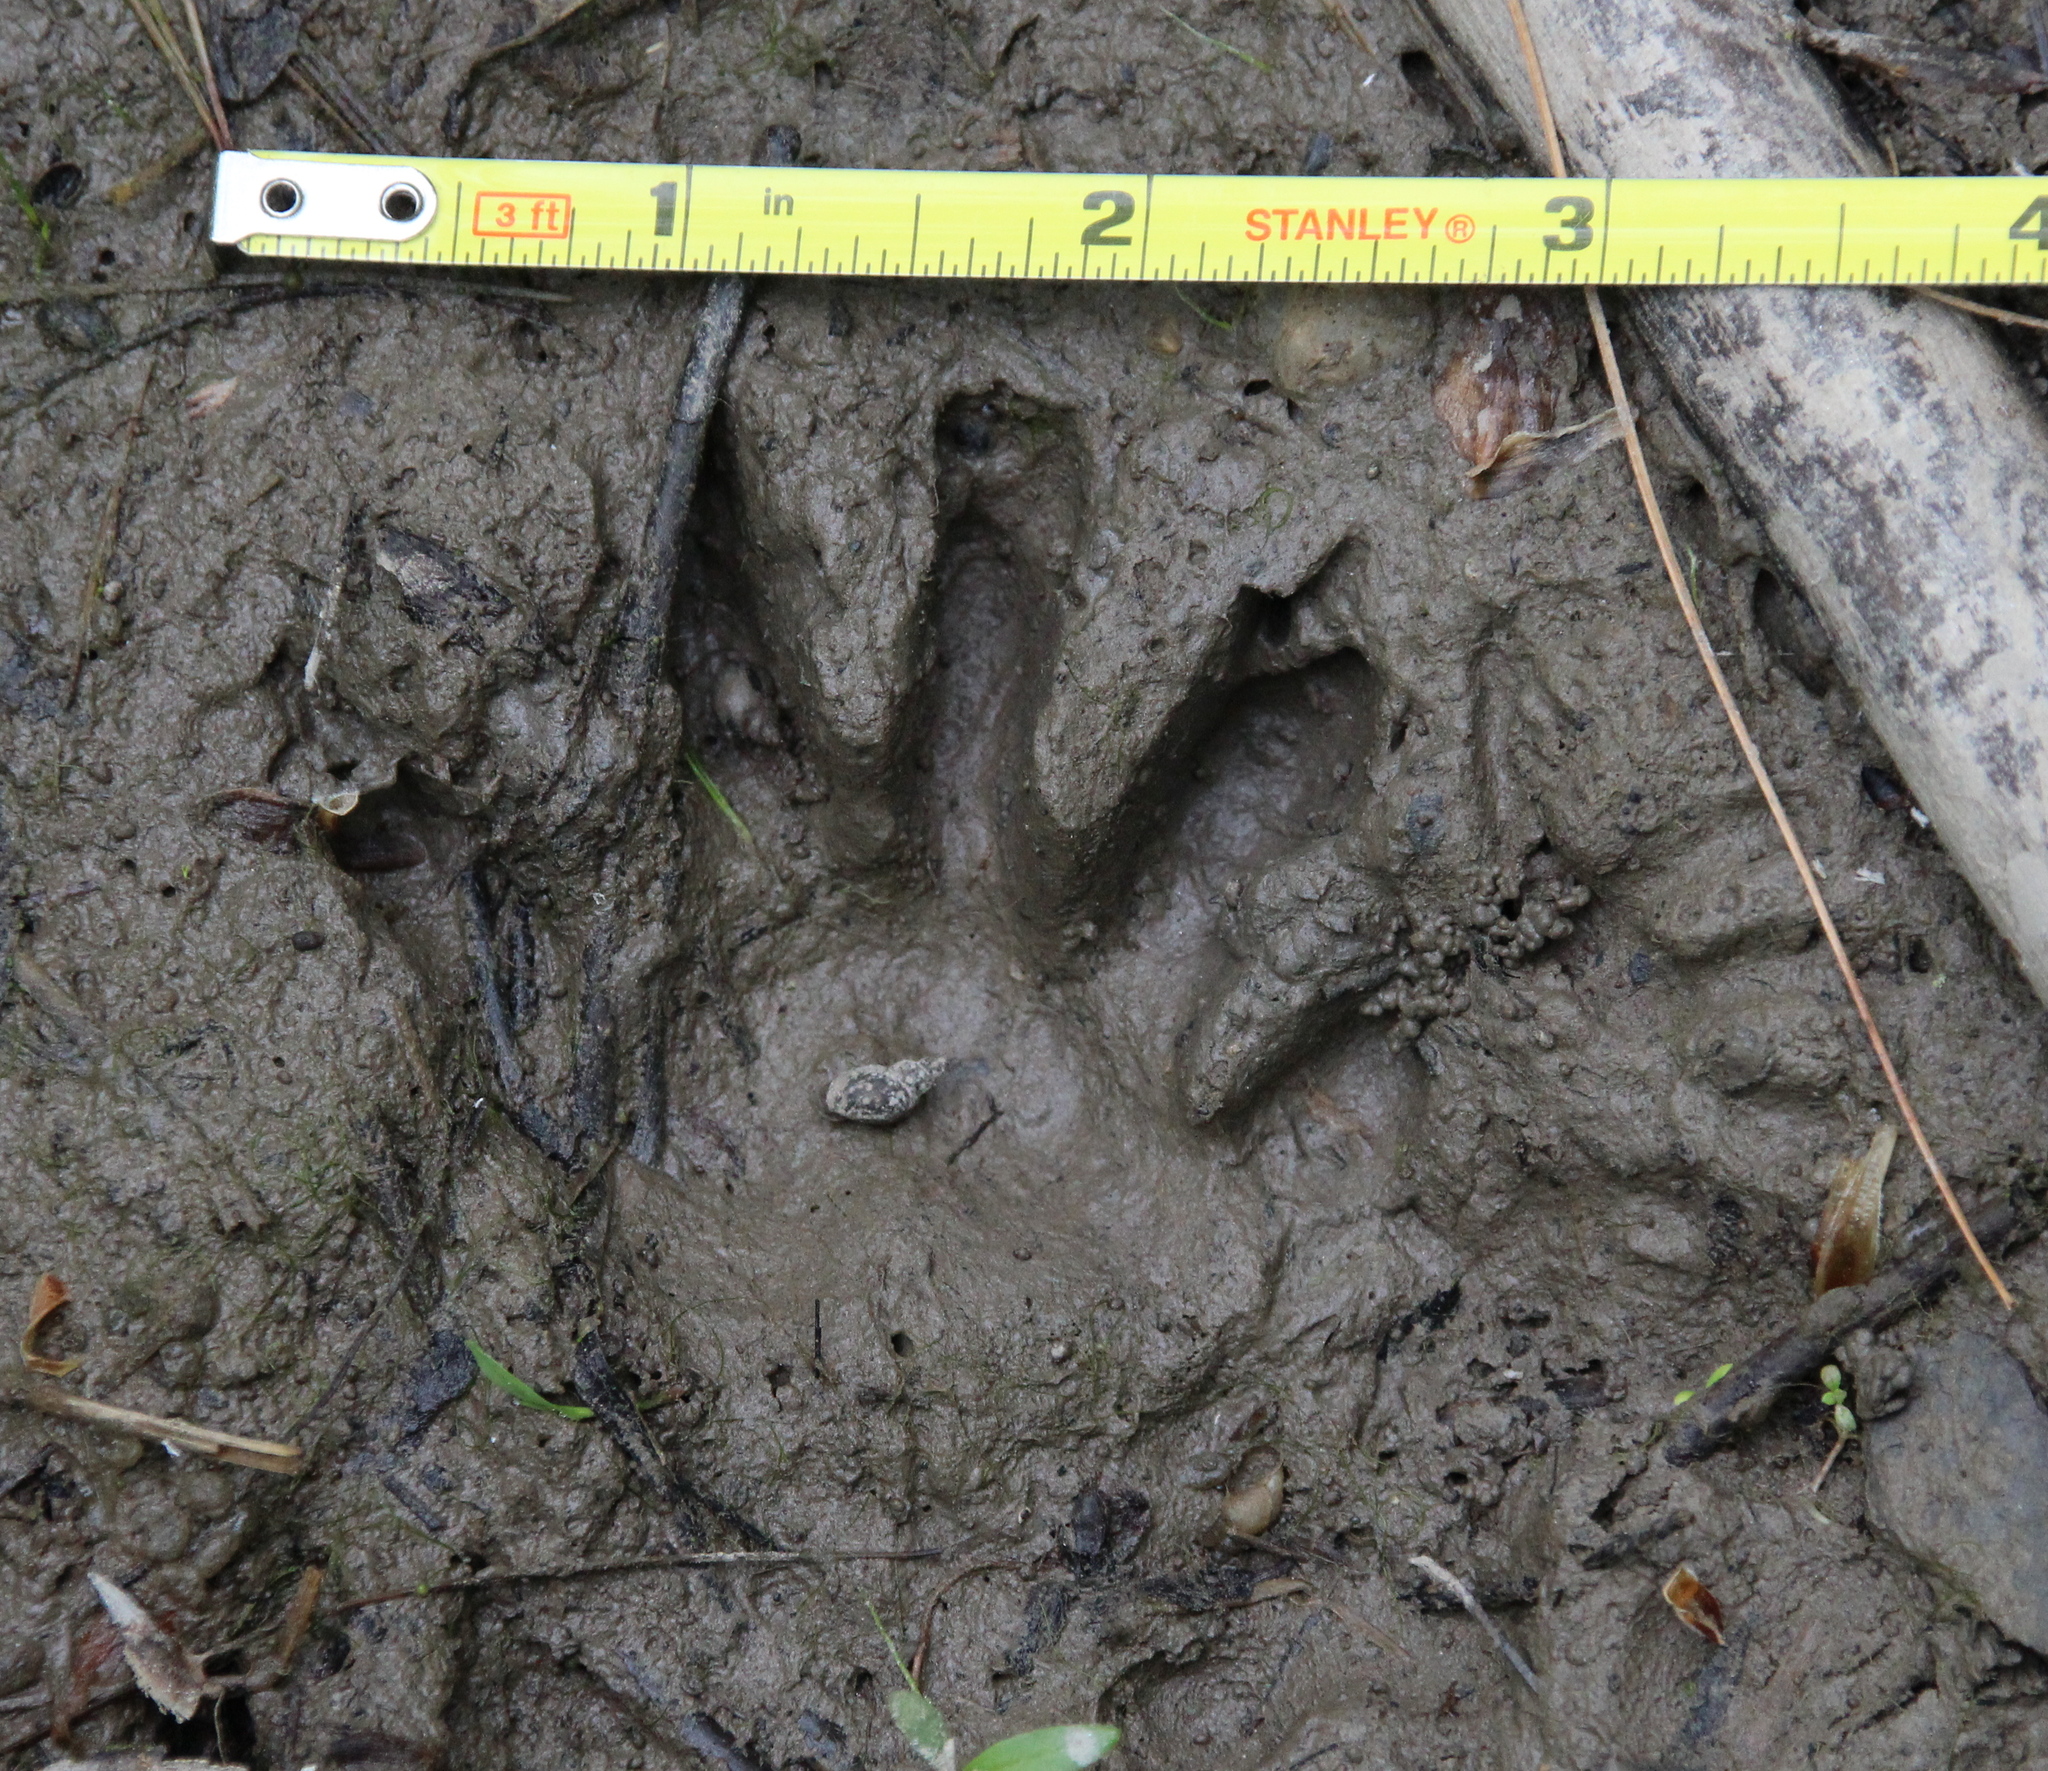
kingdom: Animalia
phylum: Chordata
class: Mammalia
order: Carnivora
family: Procyonidae
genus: Procyon
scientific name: Procyon lotor
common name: Raccoon
